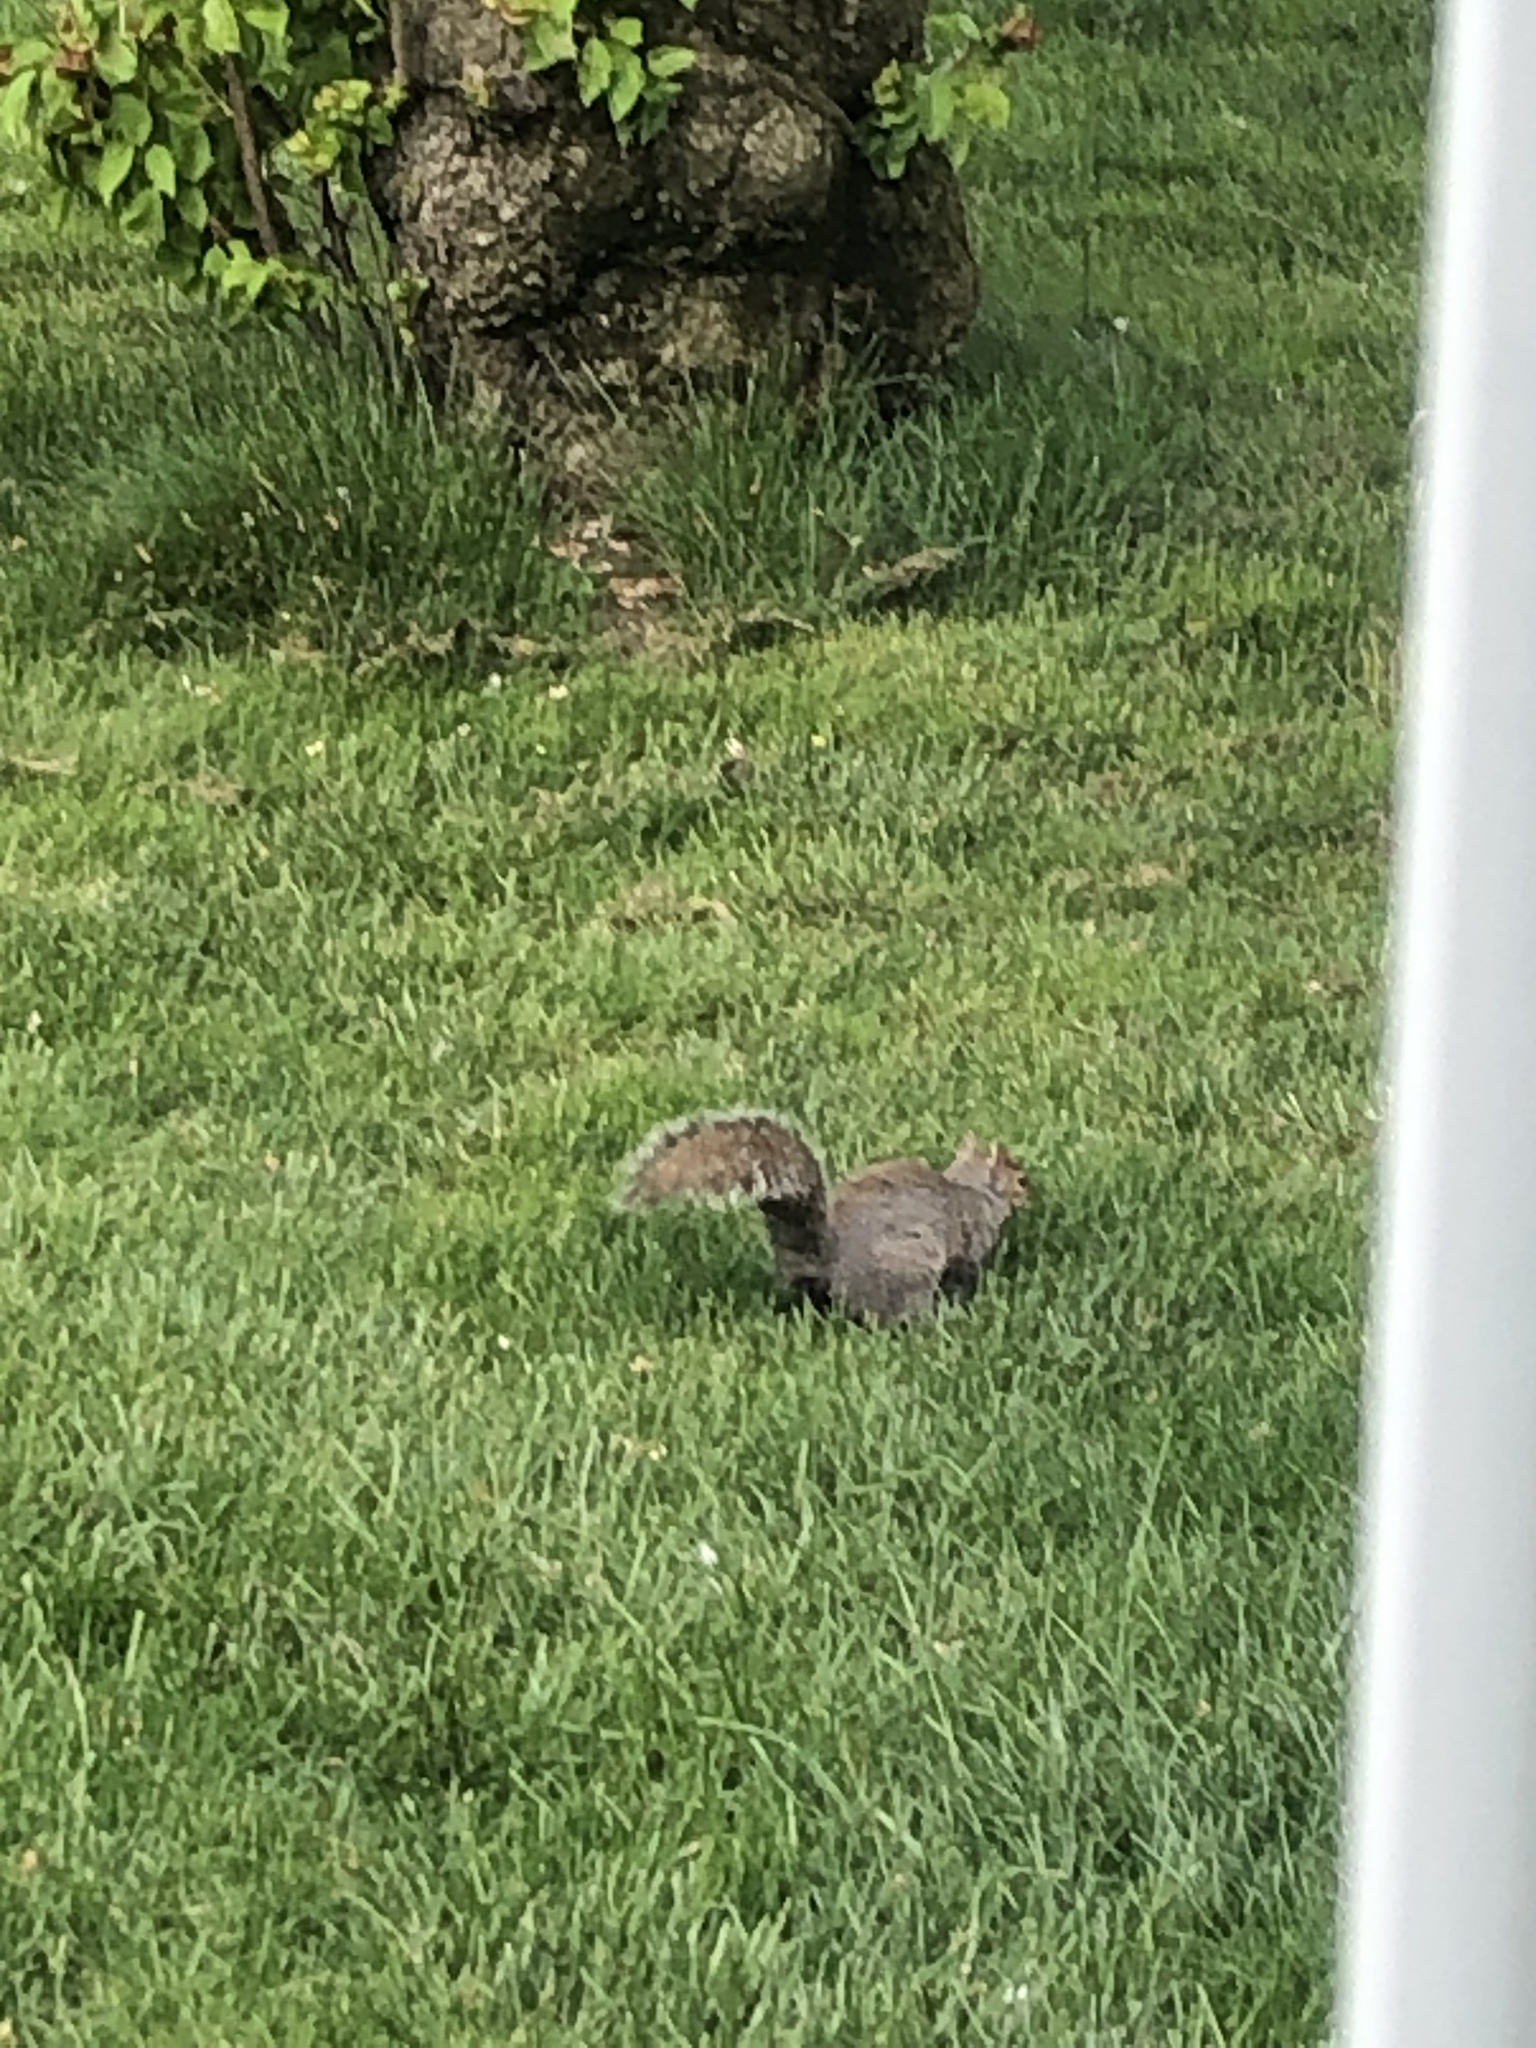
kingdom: Animalia
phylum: Chordata
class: Mammalia
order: Rodentia
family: Sciuridae
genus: Sciurus
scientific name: Sciurus carolinensis
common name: Eastern gray squirrel
